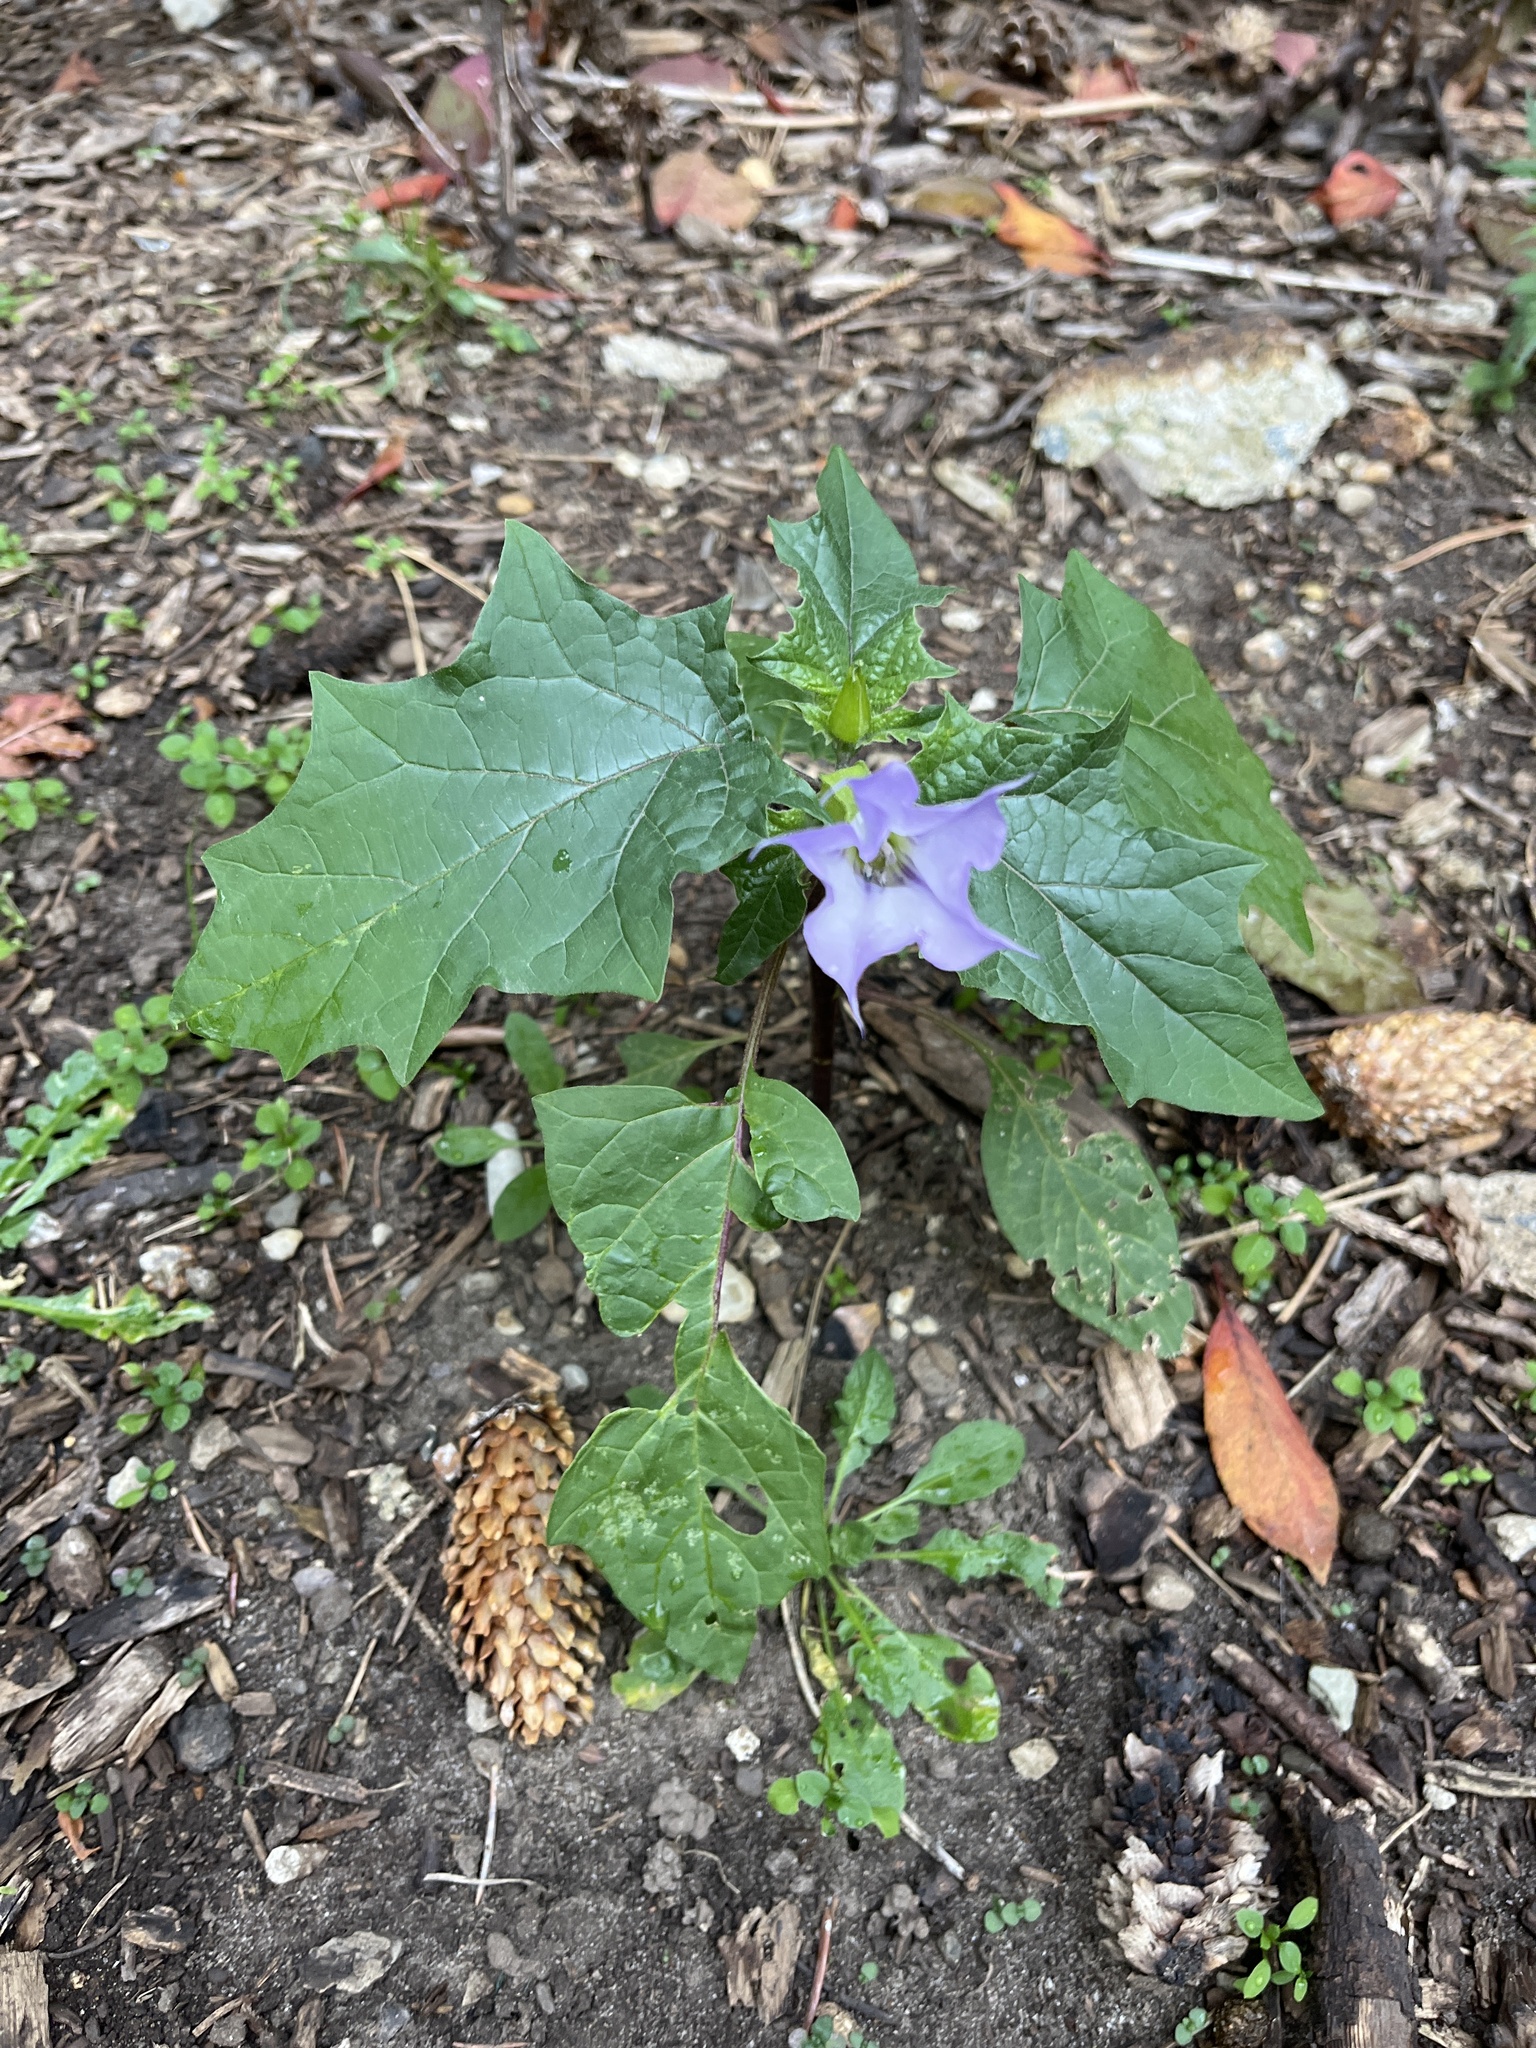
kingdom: Plantae
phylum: Tracheophyta
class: Magnoliopsida
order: Solanales
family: Solanaceae
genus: Datura
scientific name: Datura stramonium
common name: Thorn-apple
